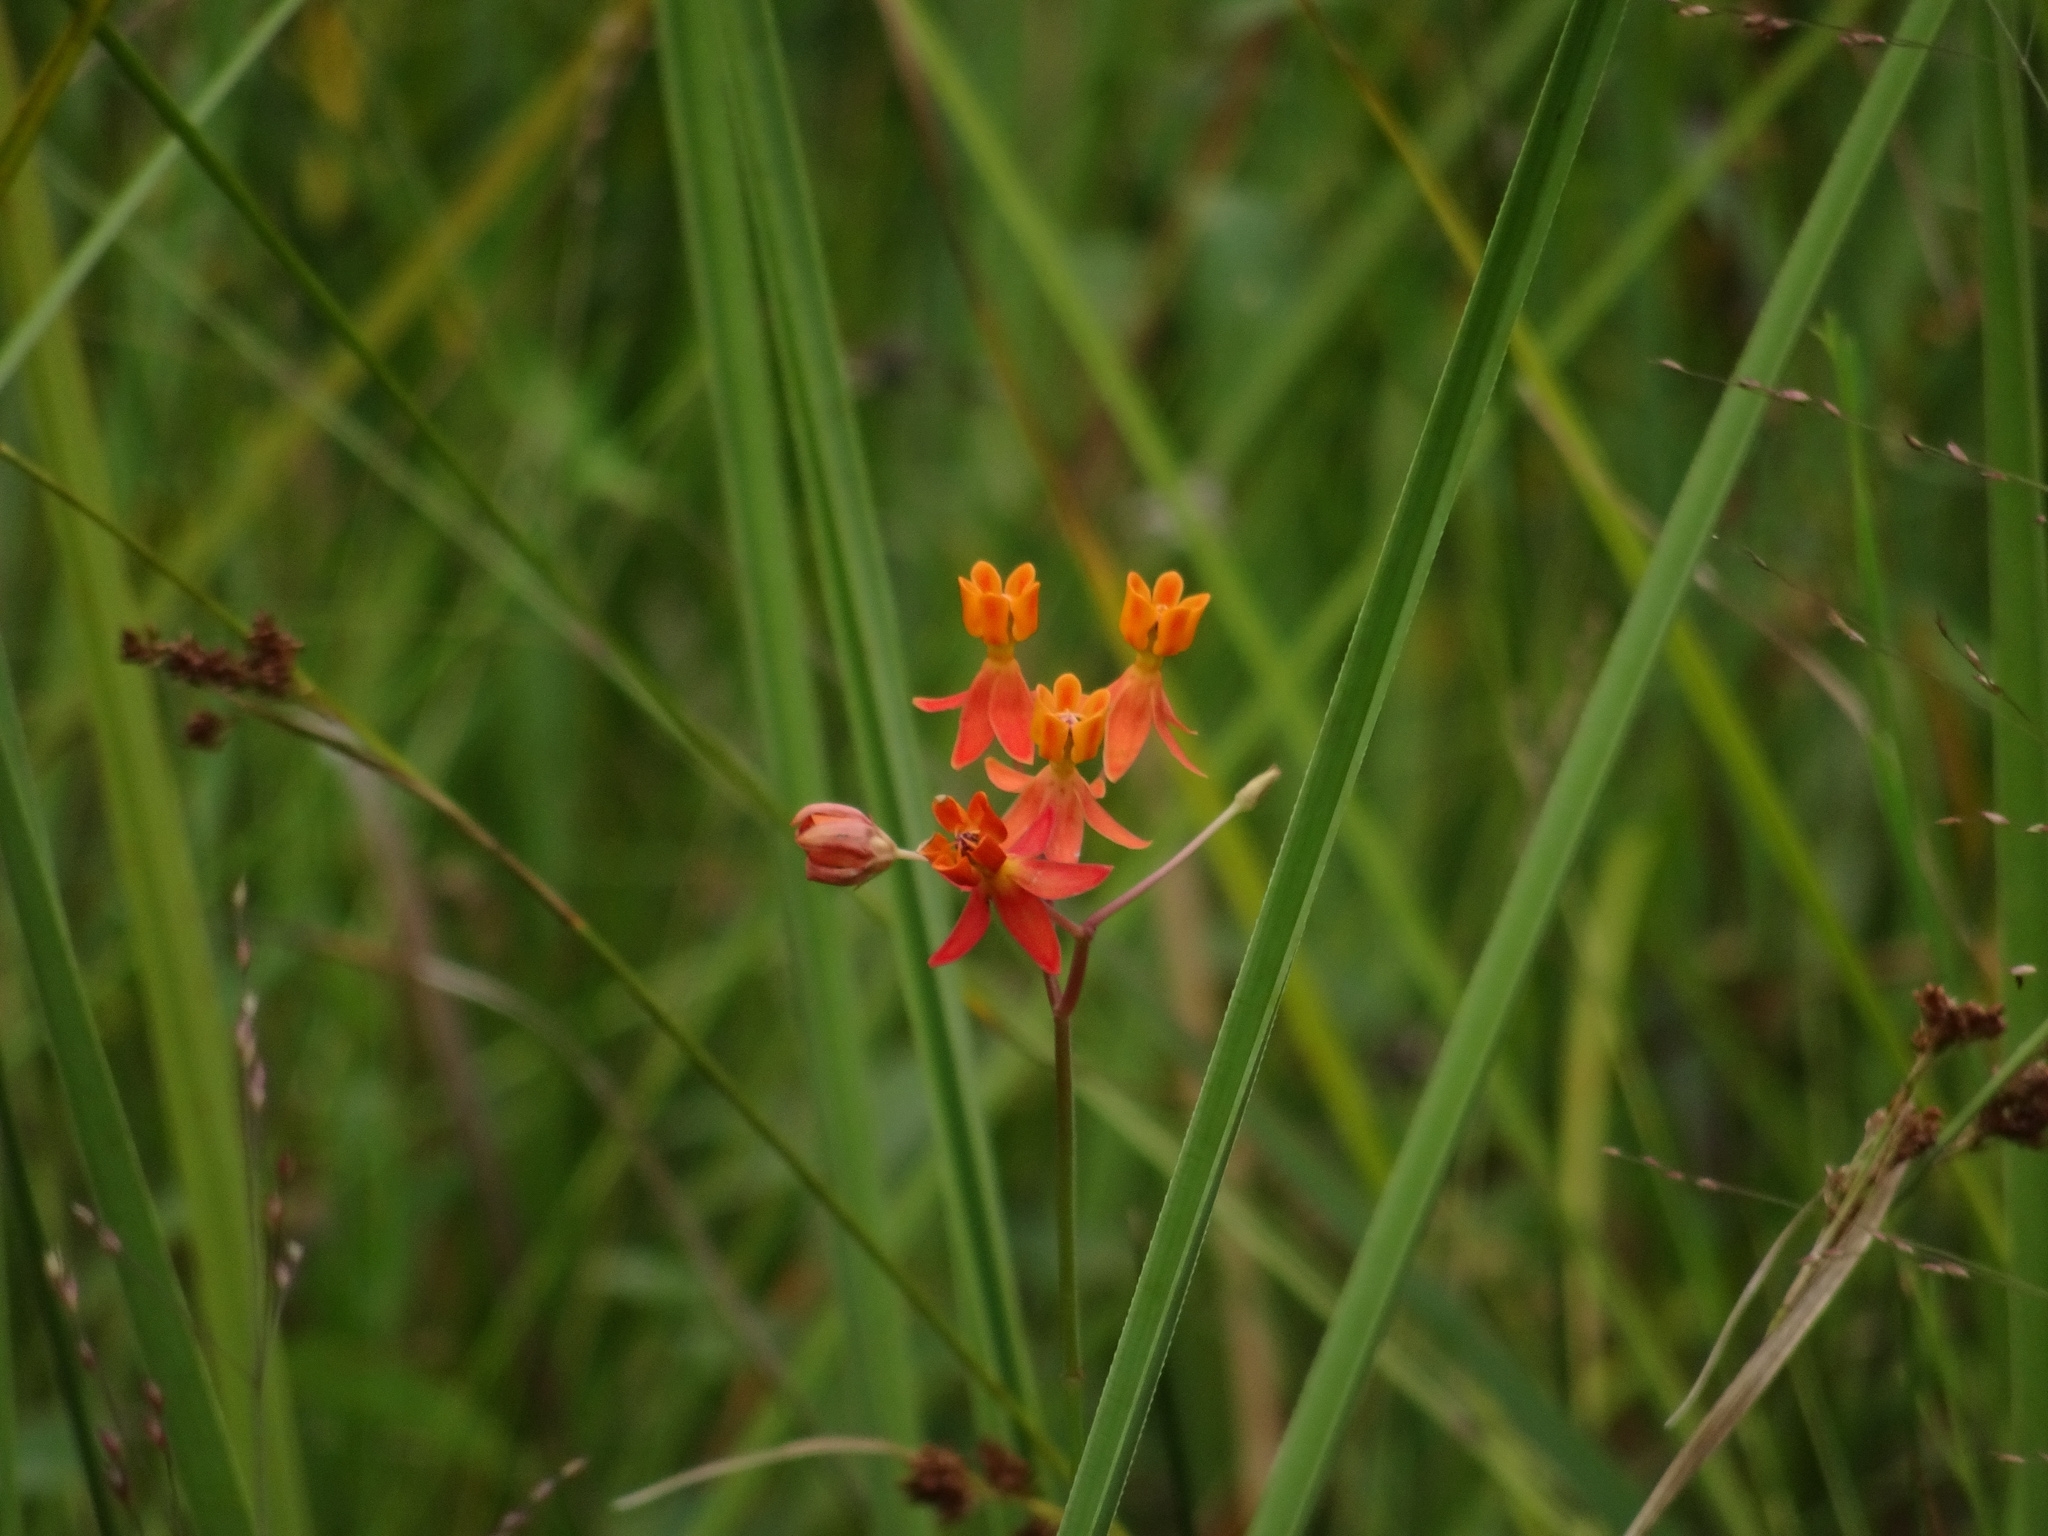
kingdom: Plantae
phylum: Tracheophyta
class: Magnoliopsida
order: Gentianales
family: Apocynaceae
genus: Asclepias
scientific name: Asclepias lanceolata
